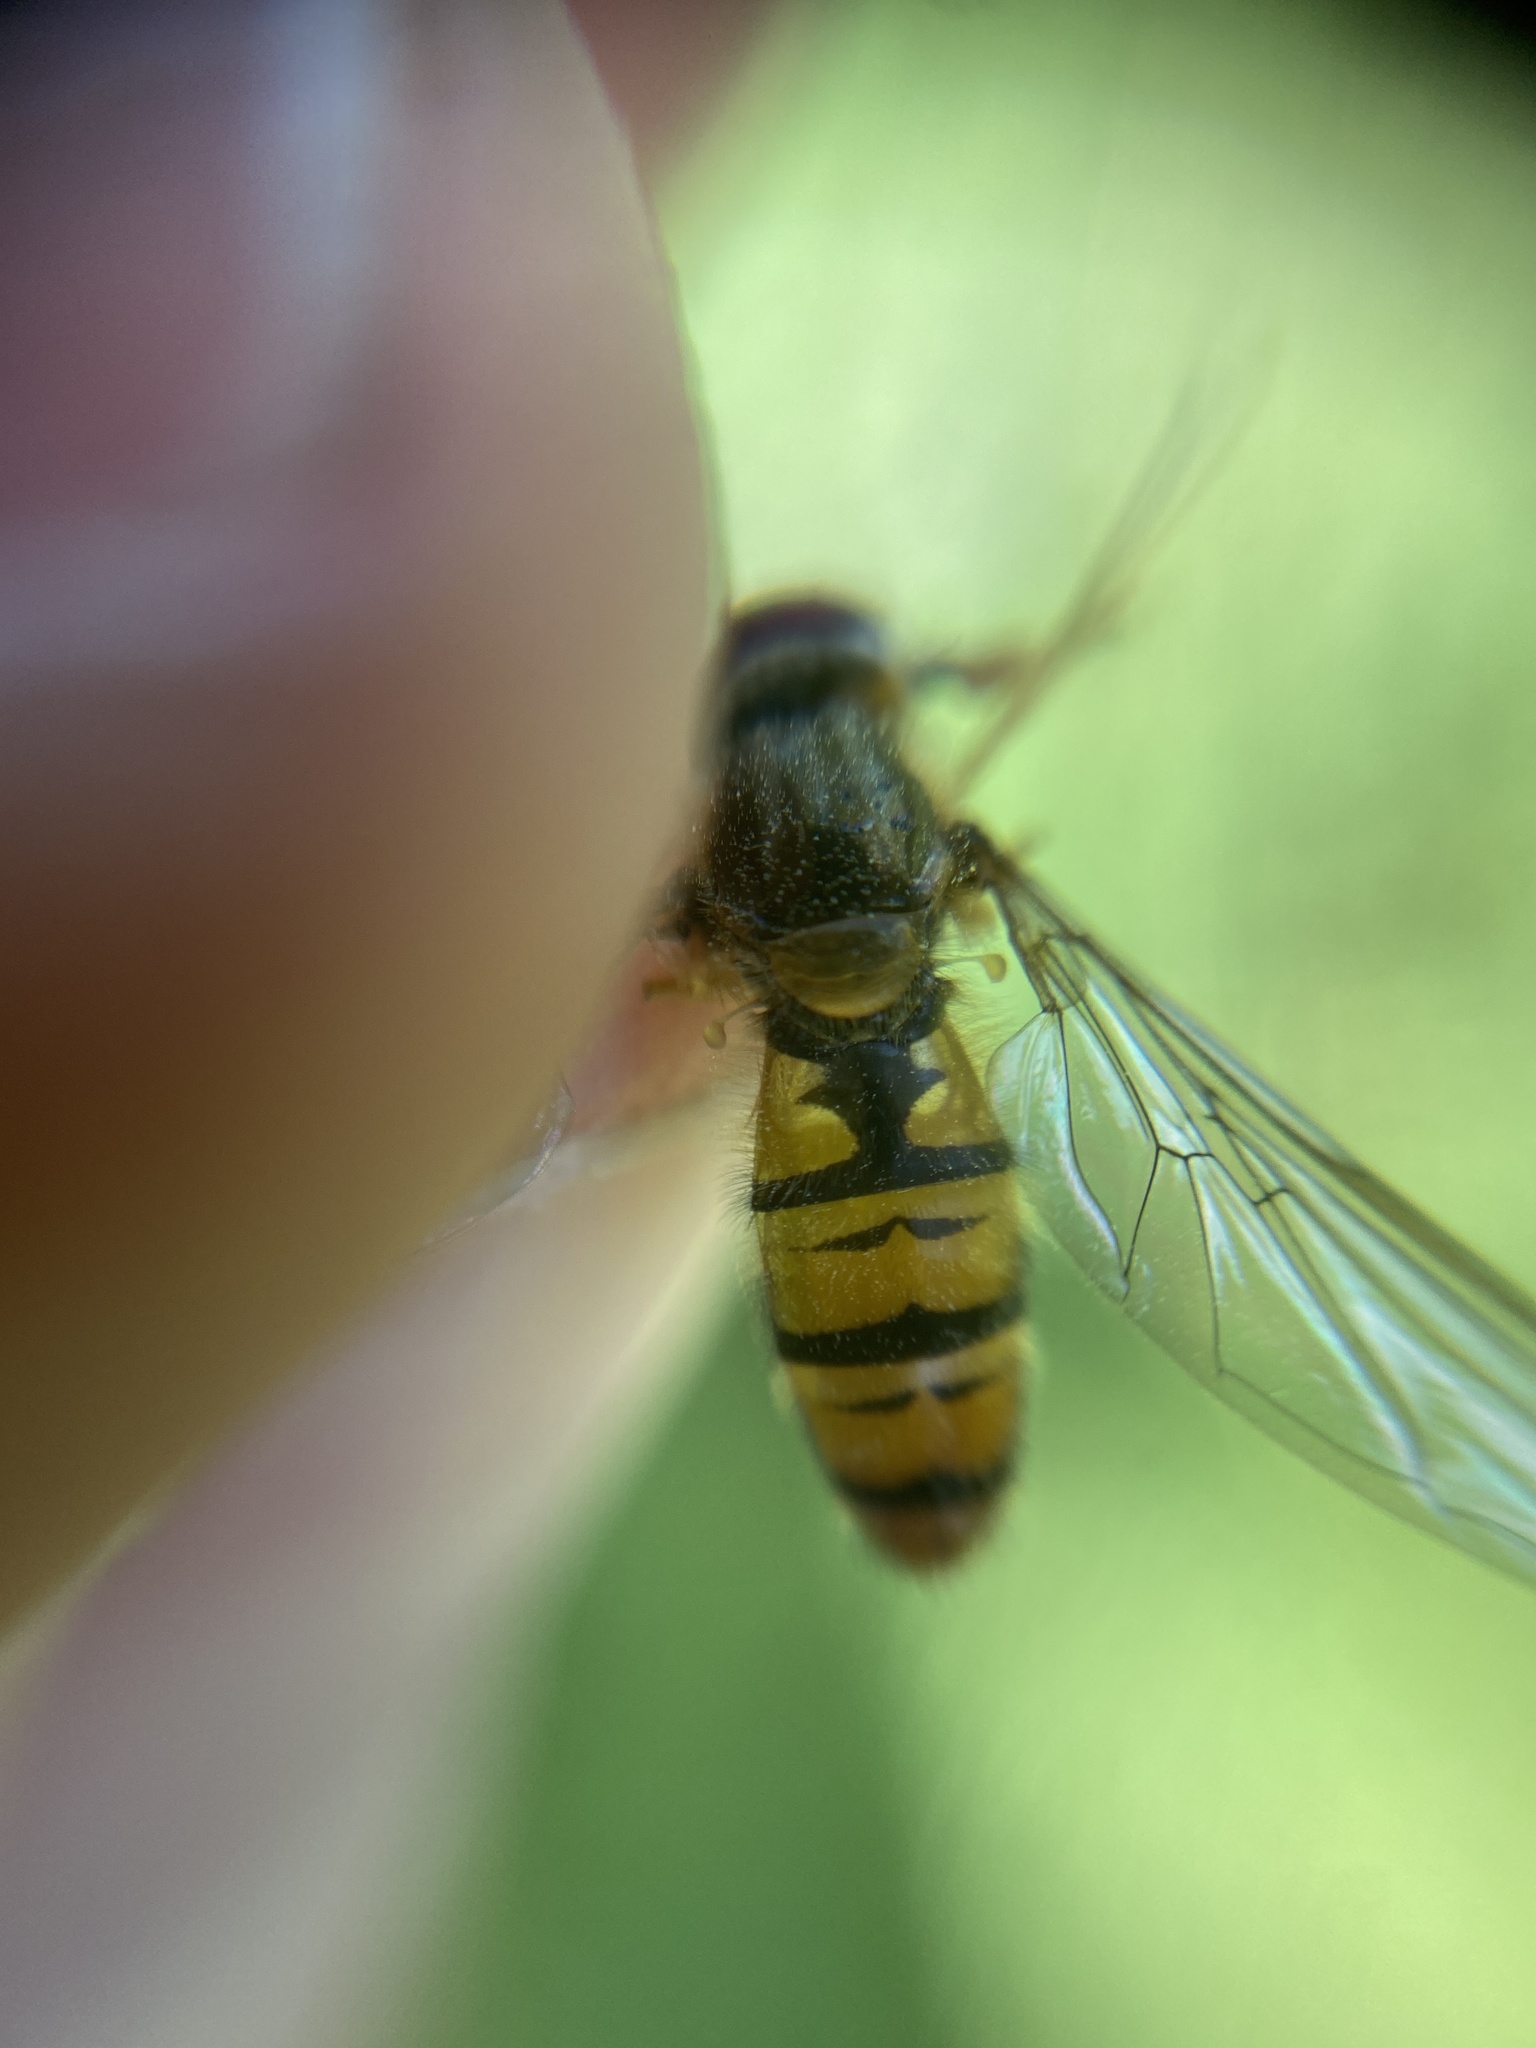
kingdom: Animalia
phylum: Arthropoda
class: Insecta
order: Diptera
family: Syrphidae
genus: Episyrphus
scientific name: Episyrphus balteatus
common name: Marmalade hoverfly
